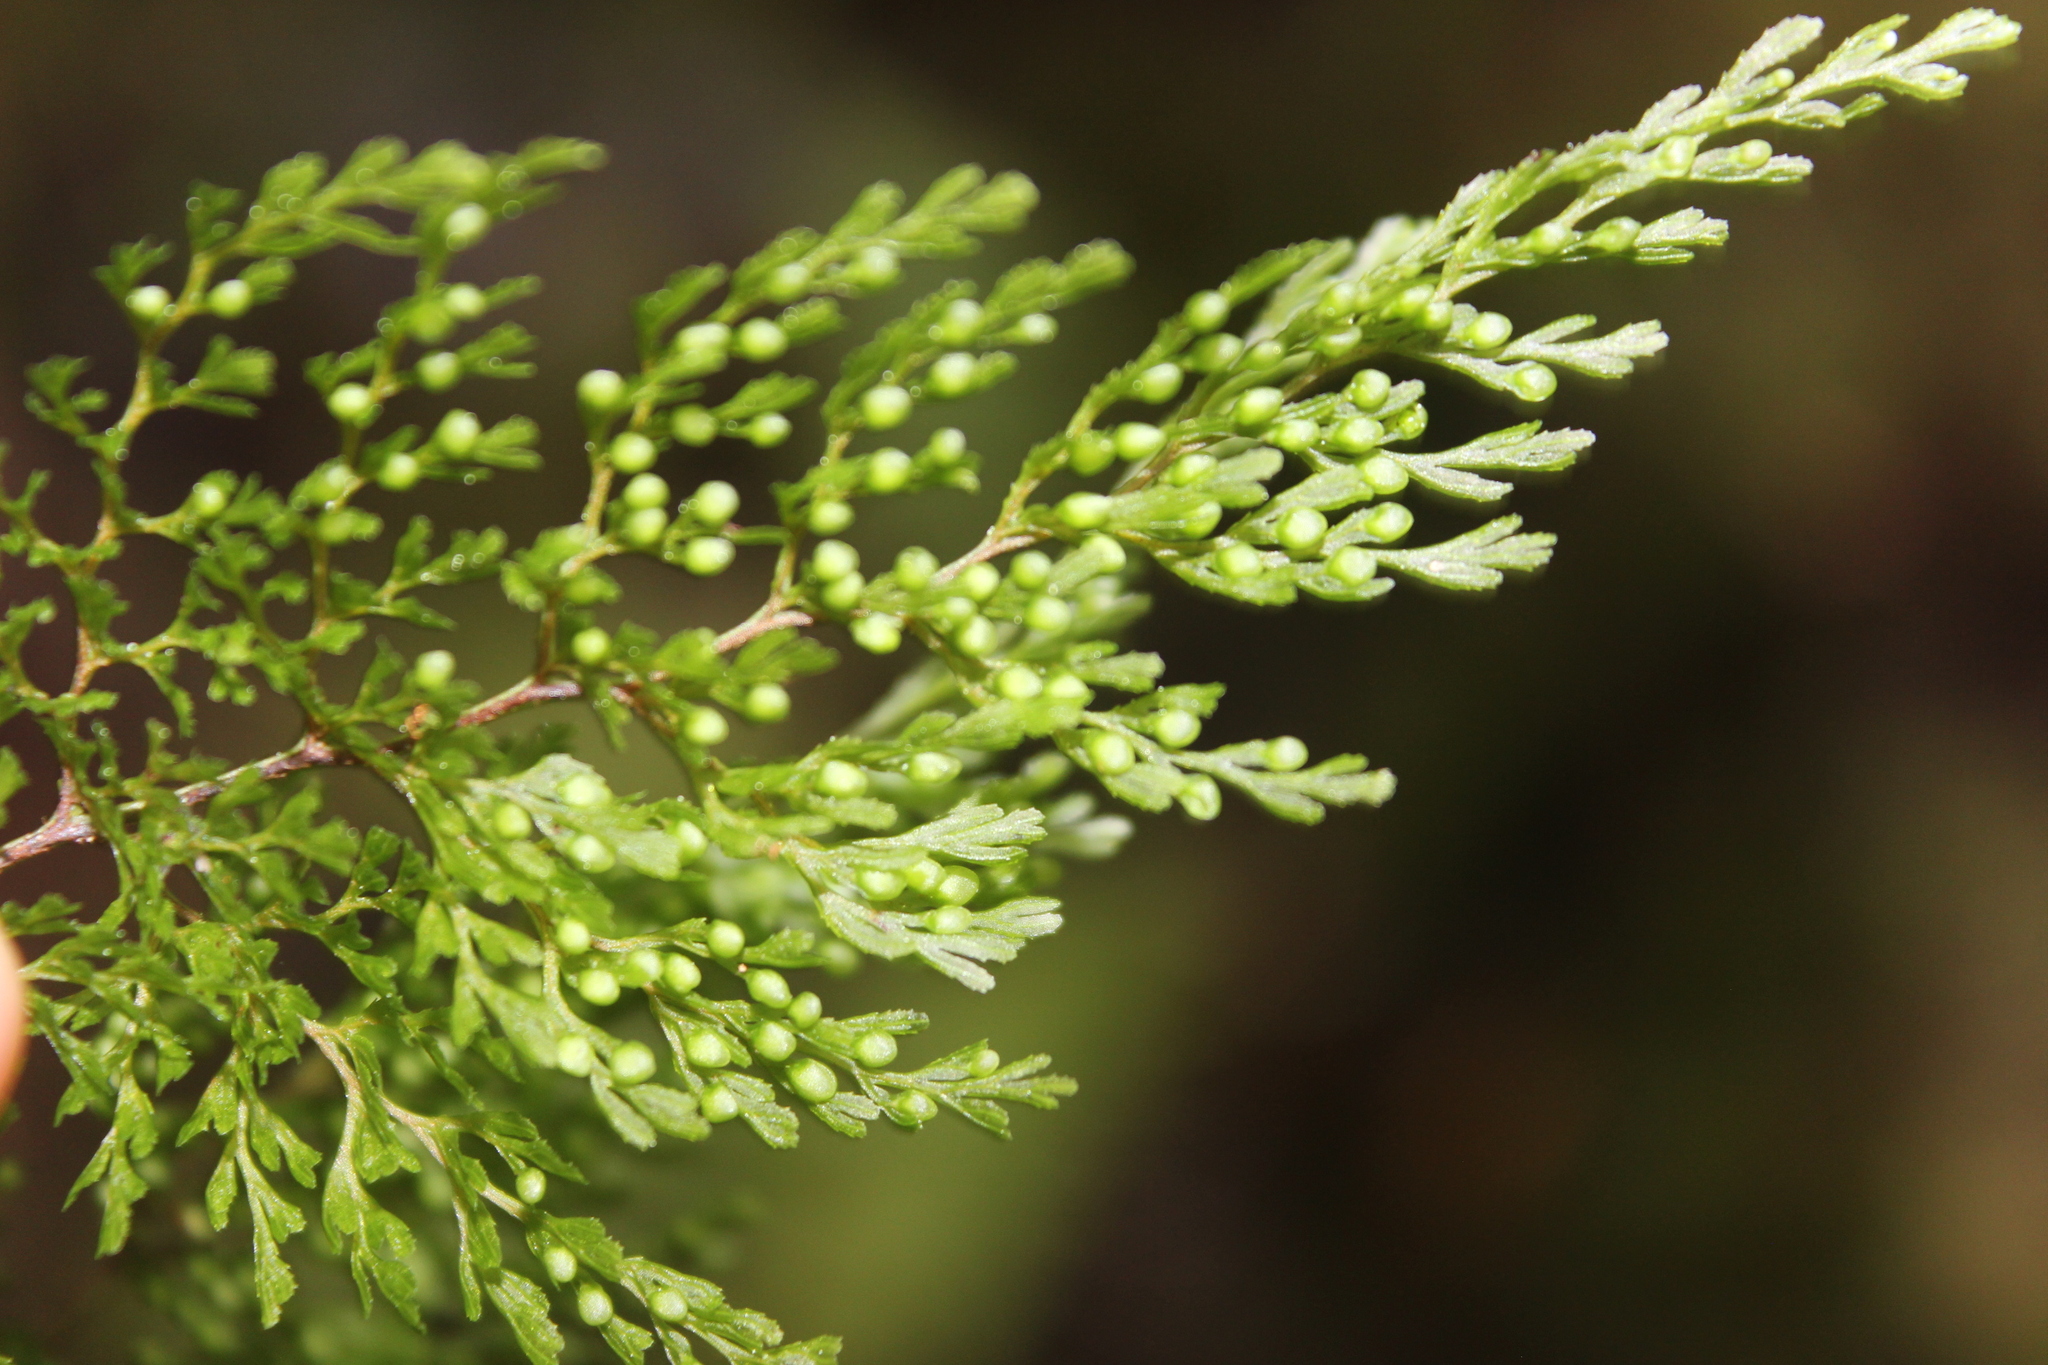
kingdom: Plantae
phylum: Tracheophyta
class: Polypodiopsida
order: Hymenophyllales
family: Hymenophyllaceae
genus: Hymenophyllum
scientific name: Hymenophyllum bivalve
